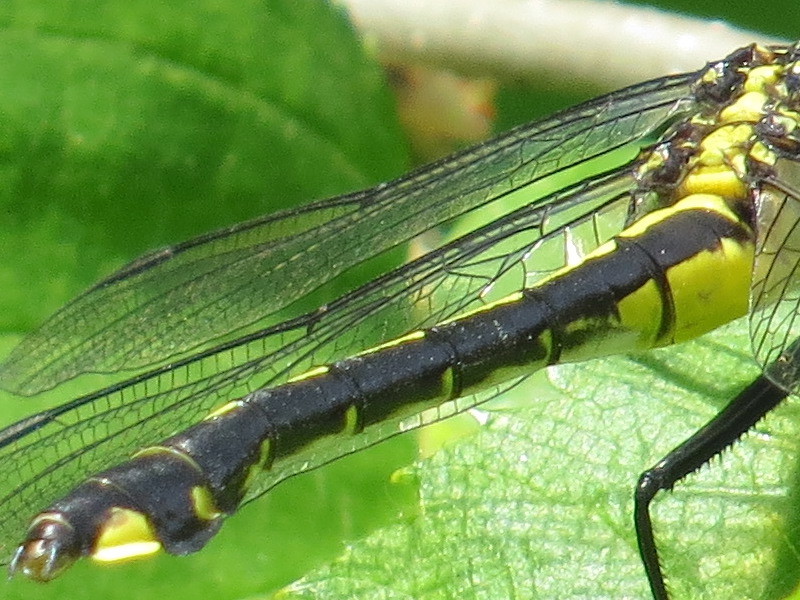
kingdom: Animalia
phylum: Arthropoda
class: Insecta
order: Odonata
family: Gomphidae
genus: Gomphurus
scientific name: Gomphurus vastus
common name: Cobra clubtail
